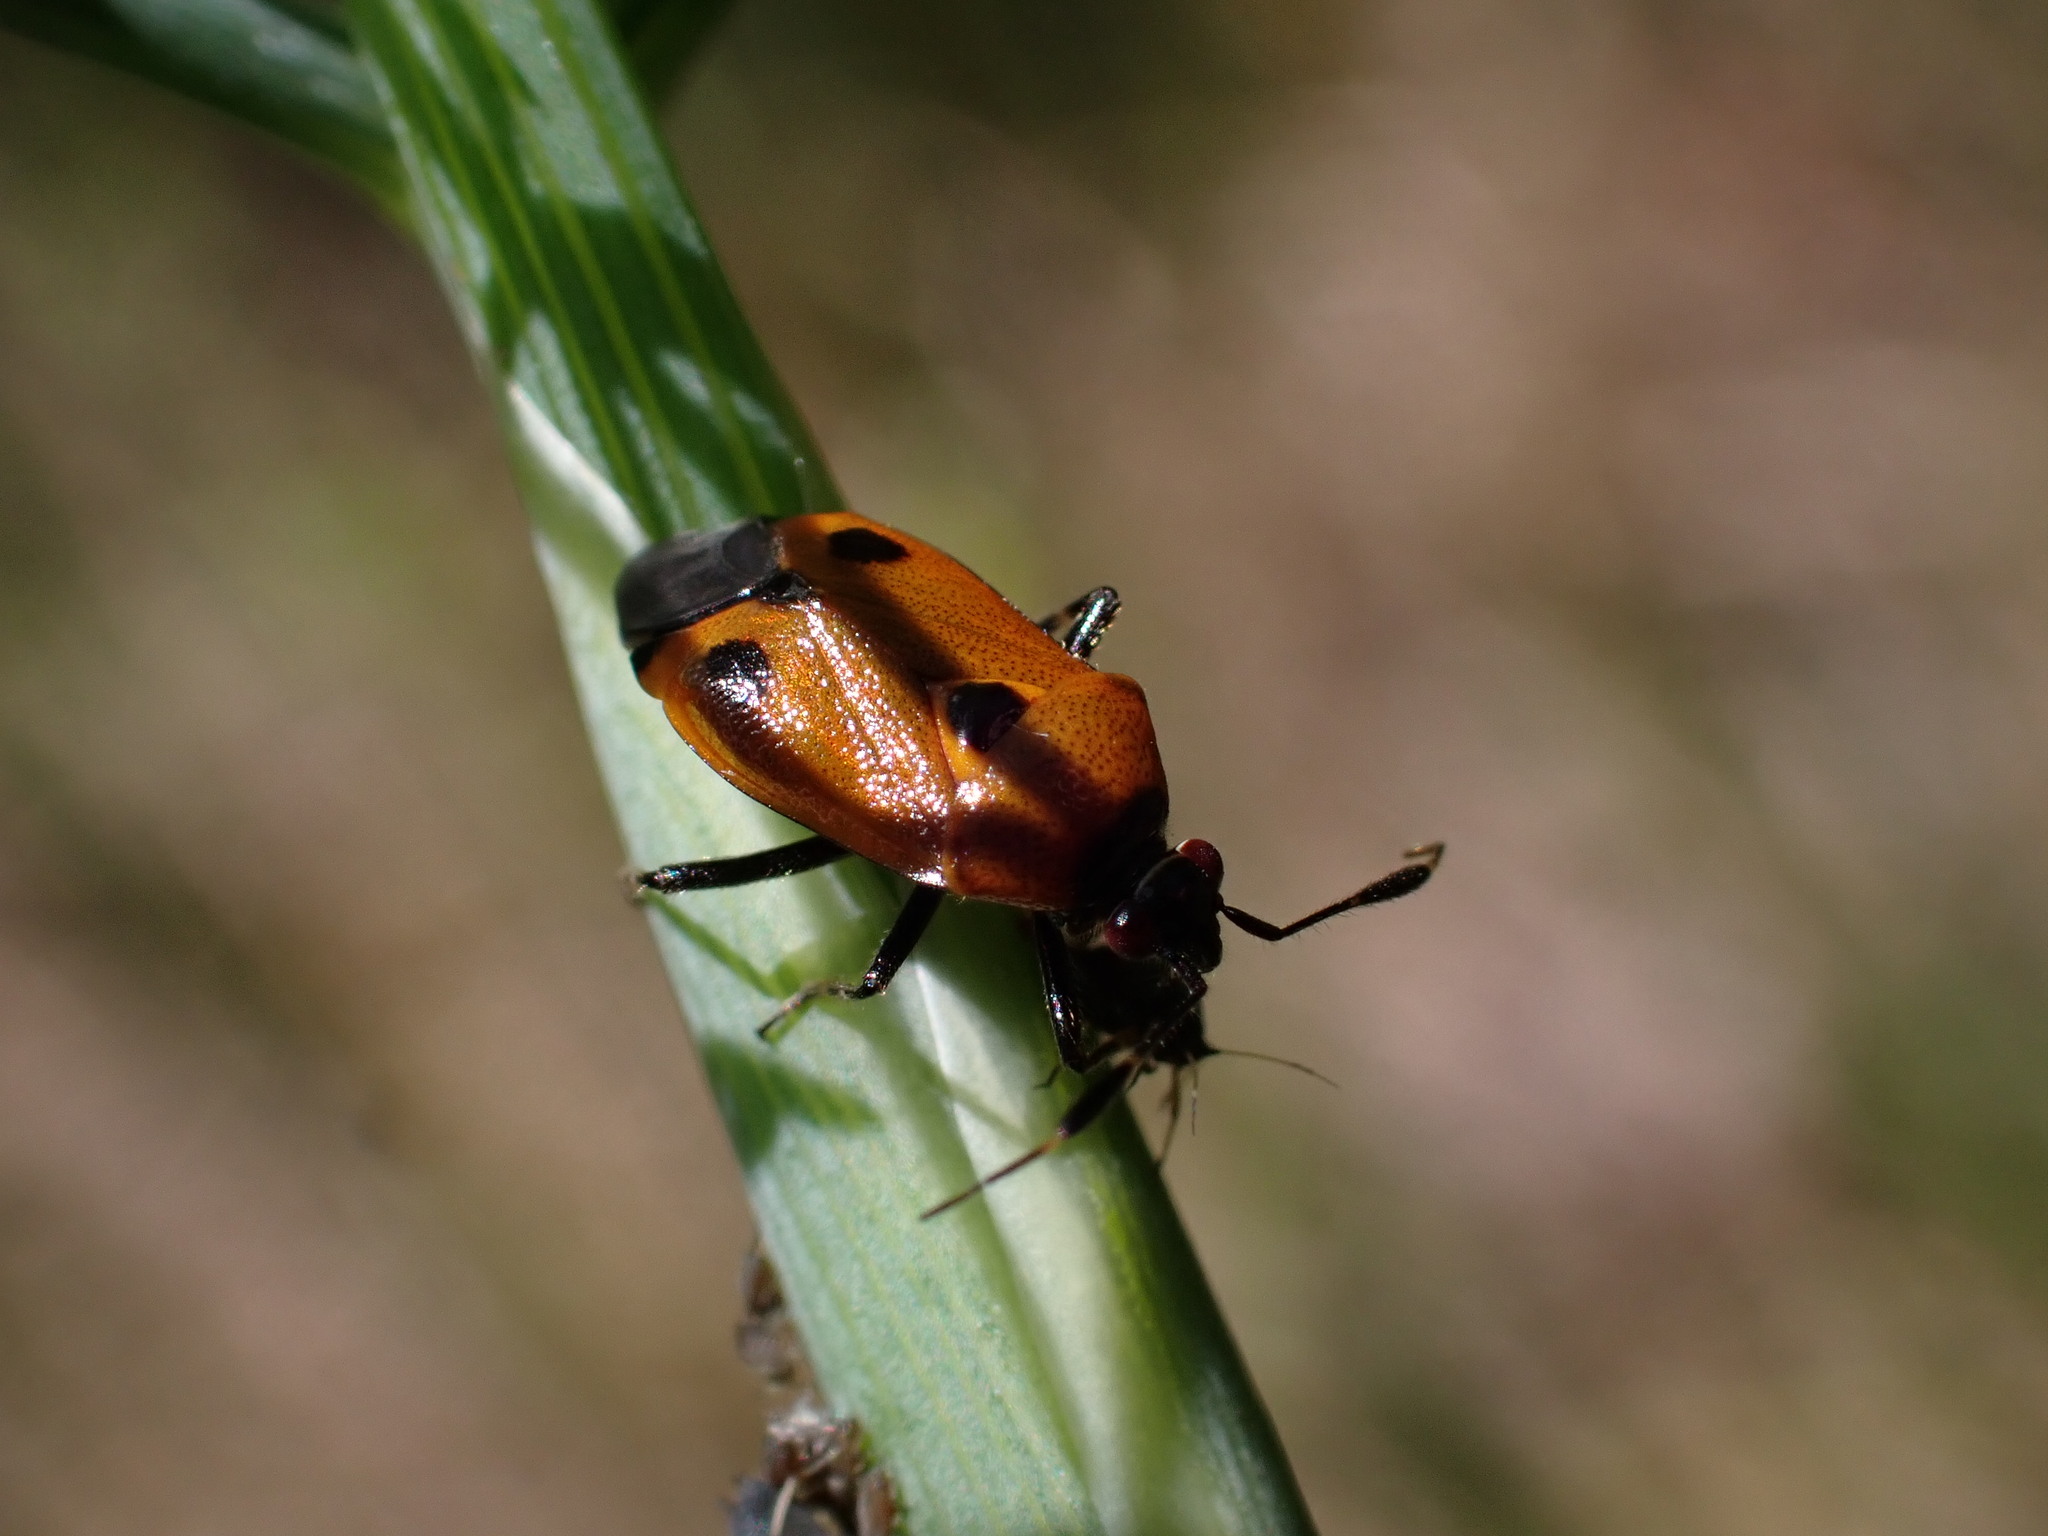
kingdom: Animalia
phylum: Arthropoda
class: Insecta
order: Hemiptera
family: Miridae
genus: Deraeocoris
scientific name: Deraeocoris punctum
